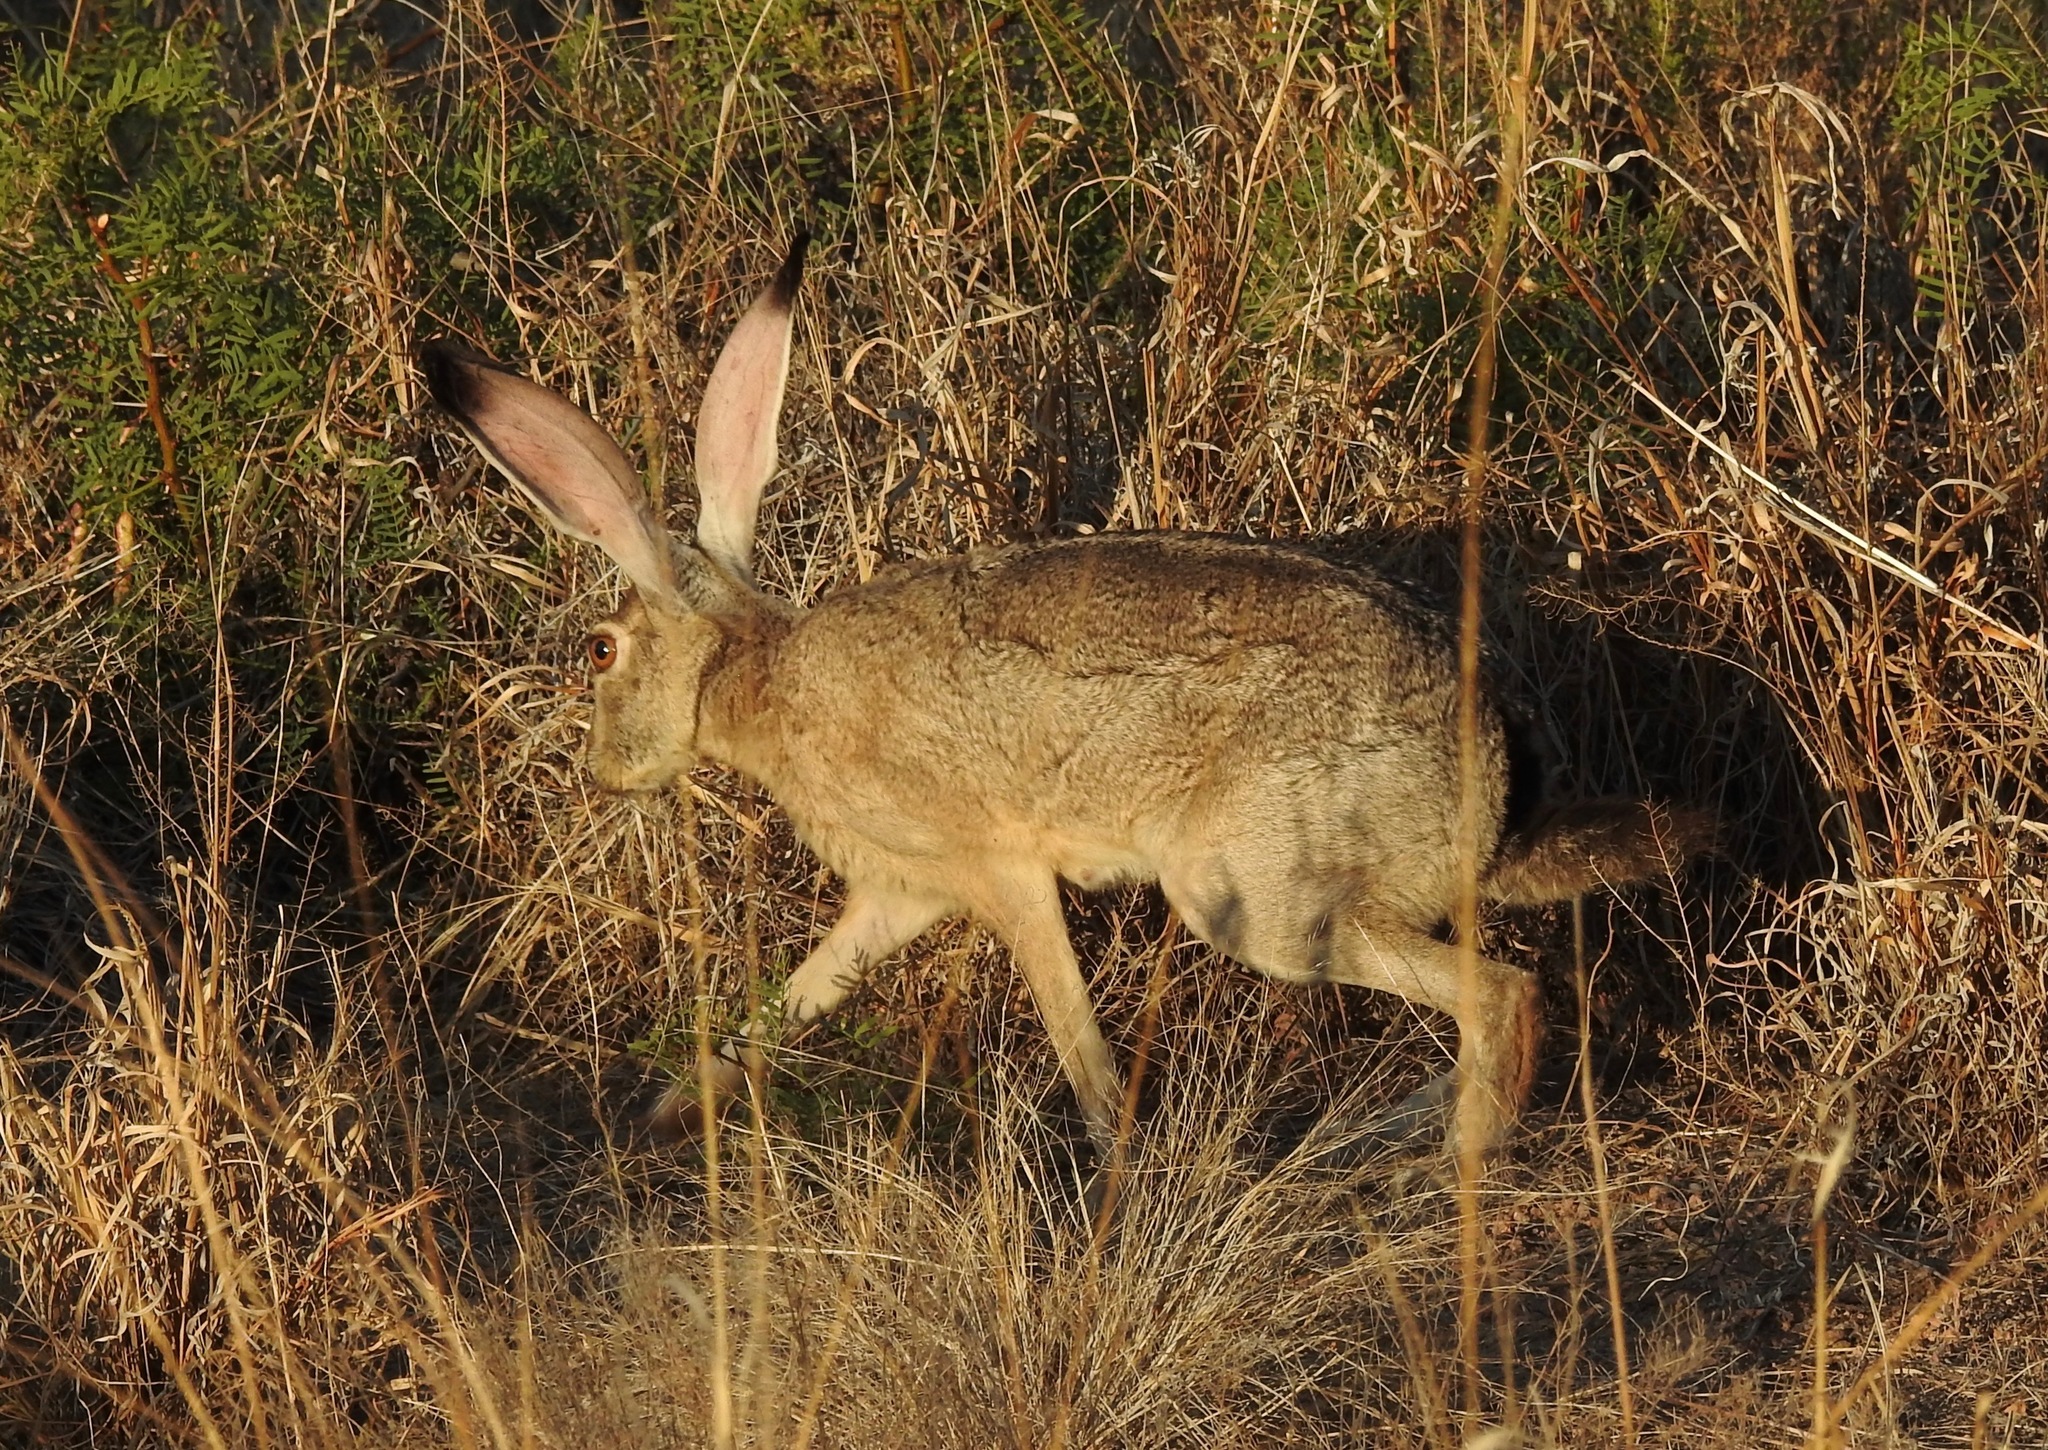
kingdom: Animalia
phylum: Chordata
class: Mammalia
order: Lagomorpha
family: Leporidae
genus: Lepus
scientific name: Lepus californicus
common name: Black-tailed jackrabbit
